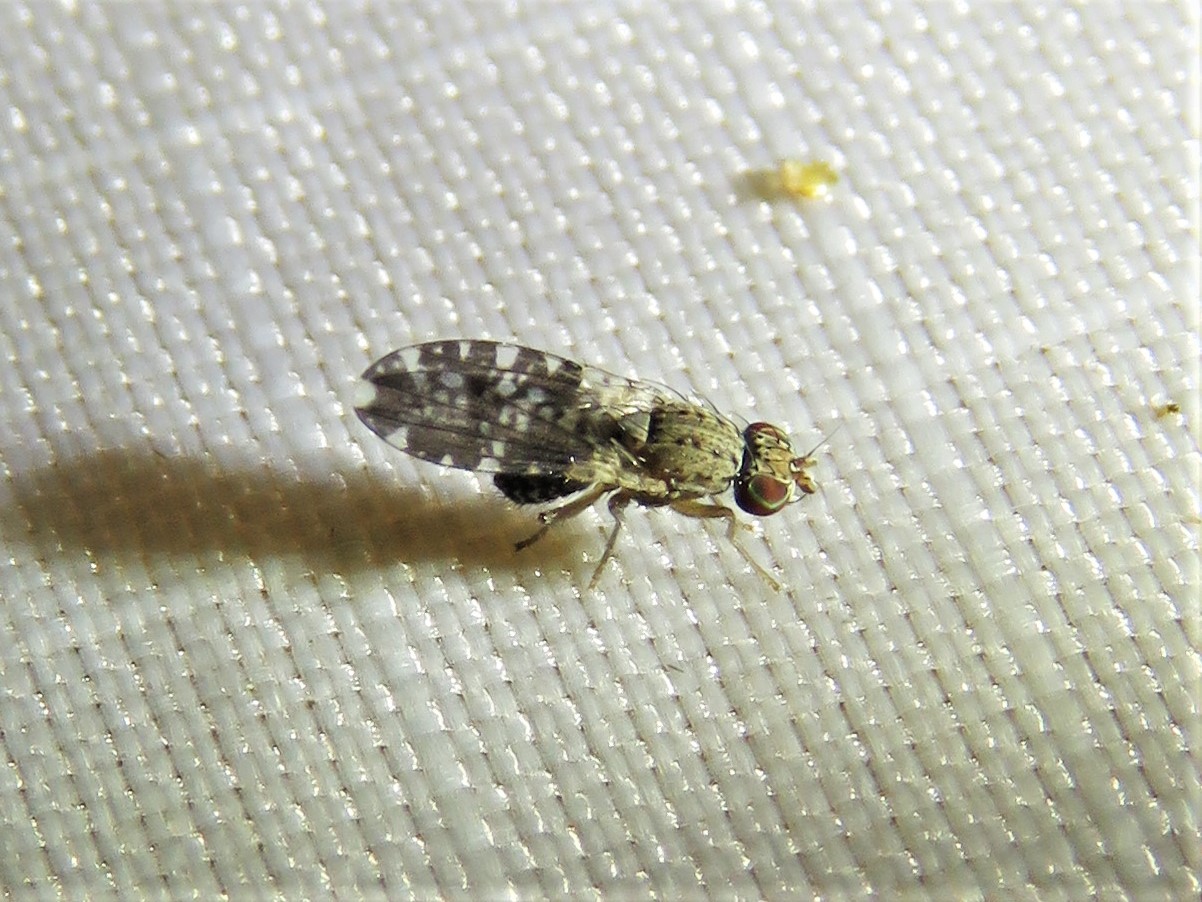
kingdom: Animalia
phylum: Arthropoda
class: Insecta
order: Diptera
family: Heleomyzidae
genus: Trixoscelis
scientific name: Trixoscelis polita
